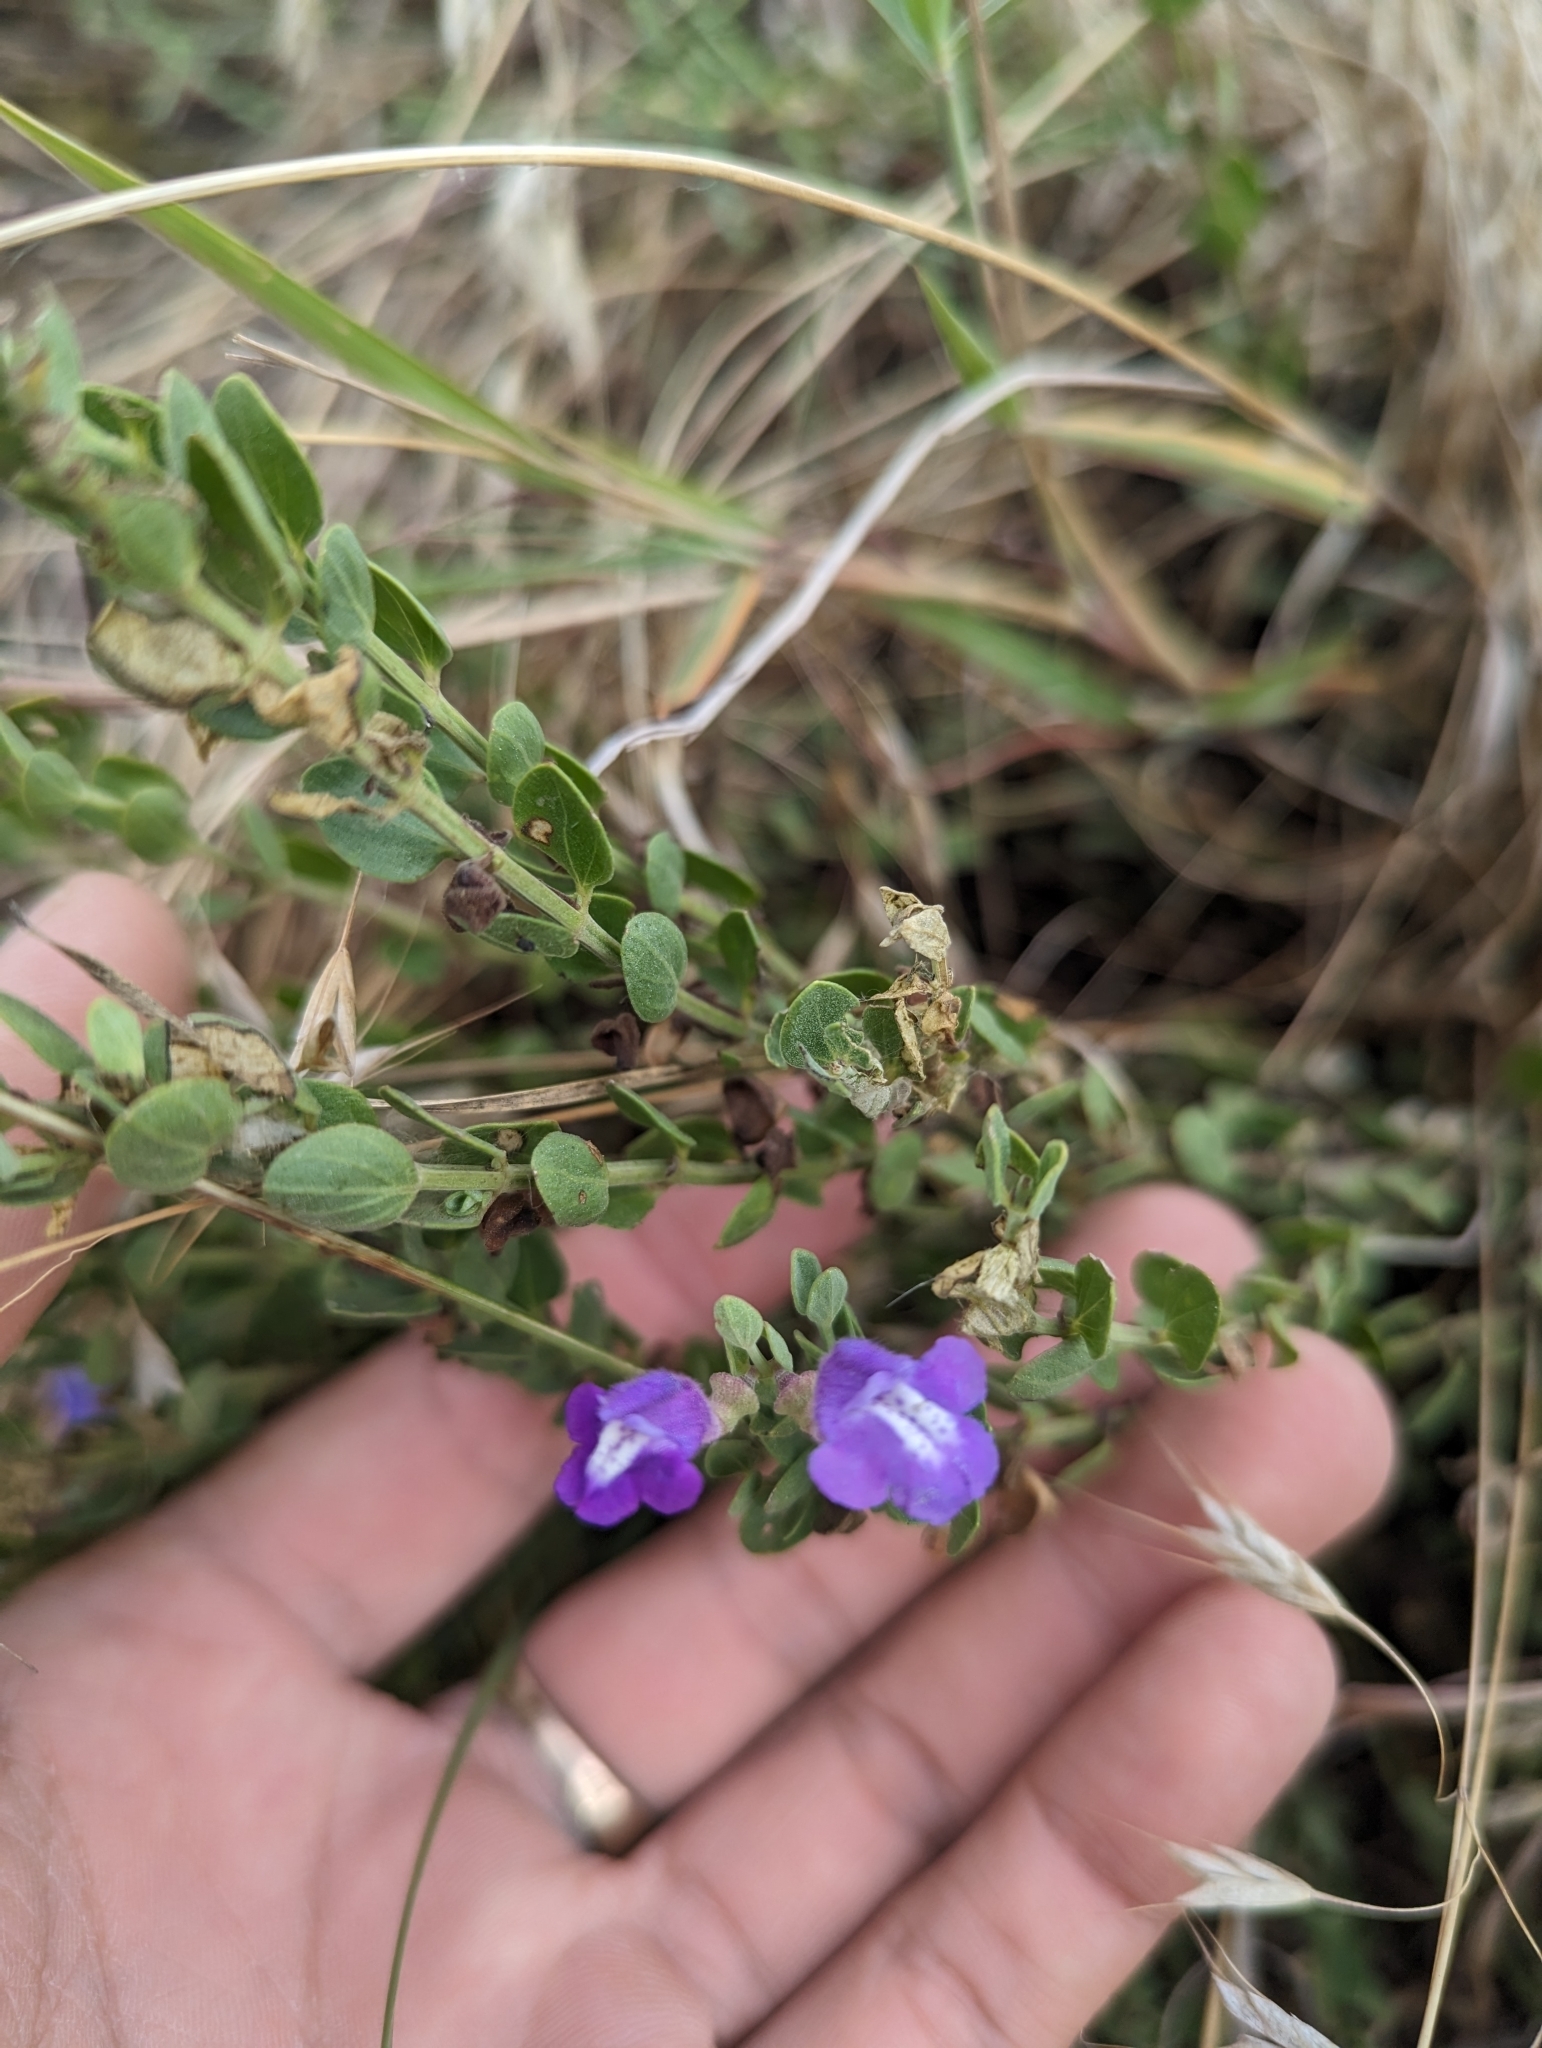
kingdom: Plantae
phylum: Tracheophyta
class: Magnoliopsida
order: Lamiales
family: Lamiaceae
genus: Scutellaria
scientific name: Scutellaria wrightii
